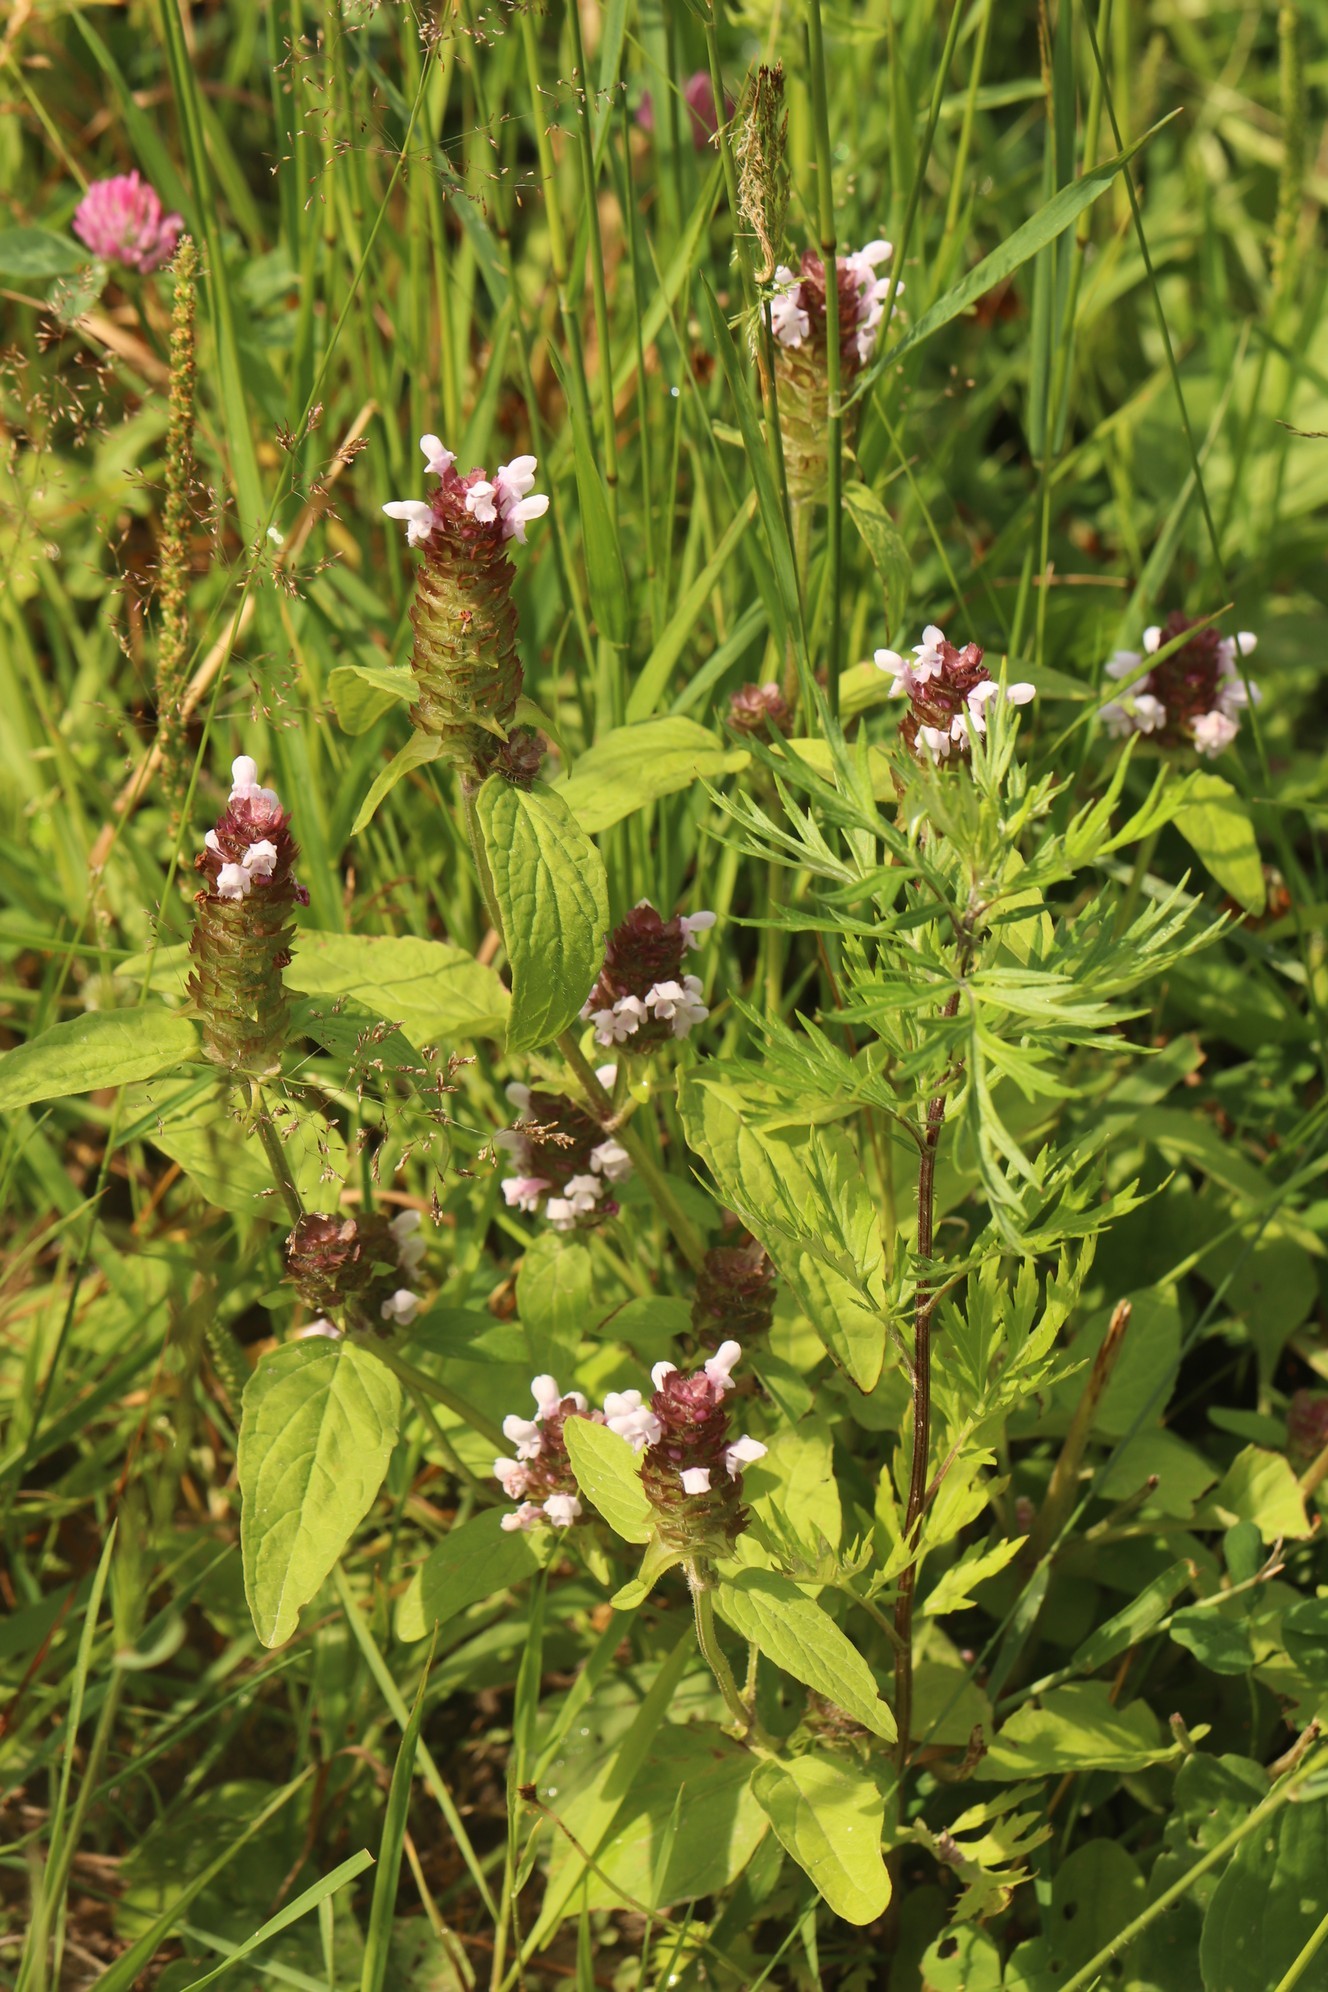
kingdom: Plantae
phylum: Tracheophyta
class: Magnoliopsida
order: Lamiales
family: Lamiaceae
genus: Prunella
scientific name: Prunella vulgaris
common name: Heal-all
